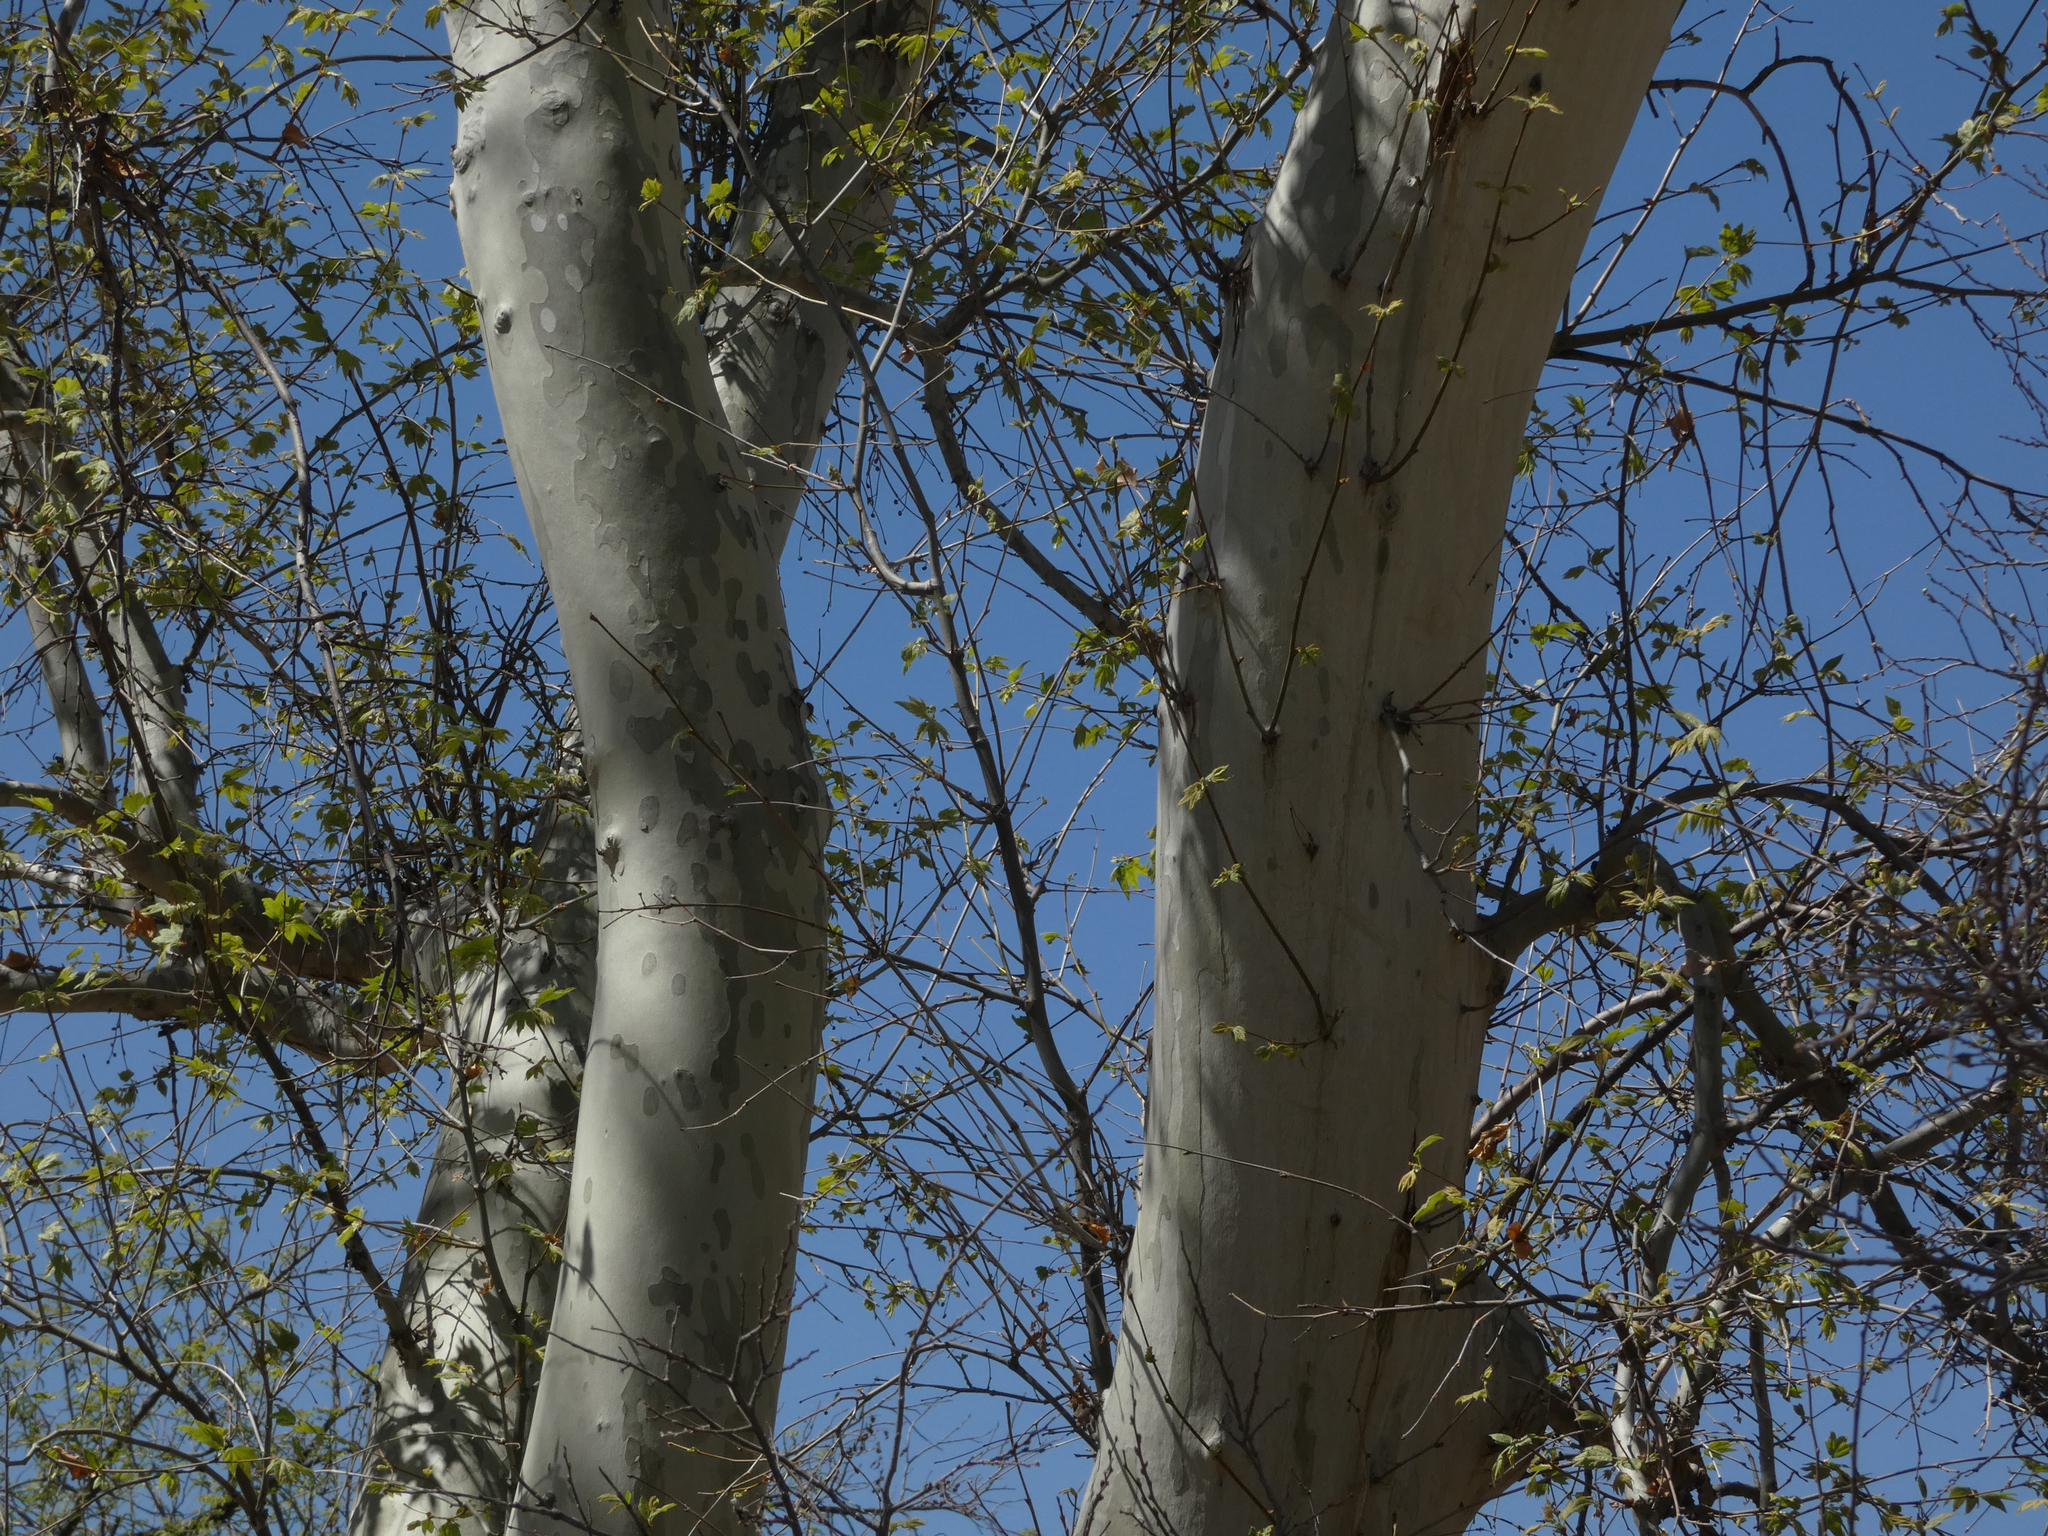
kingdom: Plantae
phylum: Tracheophyta
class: Magnoliopsida
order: Proteales
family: Platanaceae
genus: Platanus
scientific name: Platanus wrightii
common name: Arizona sycamore
